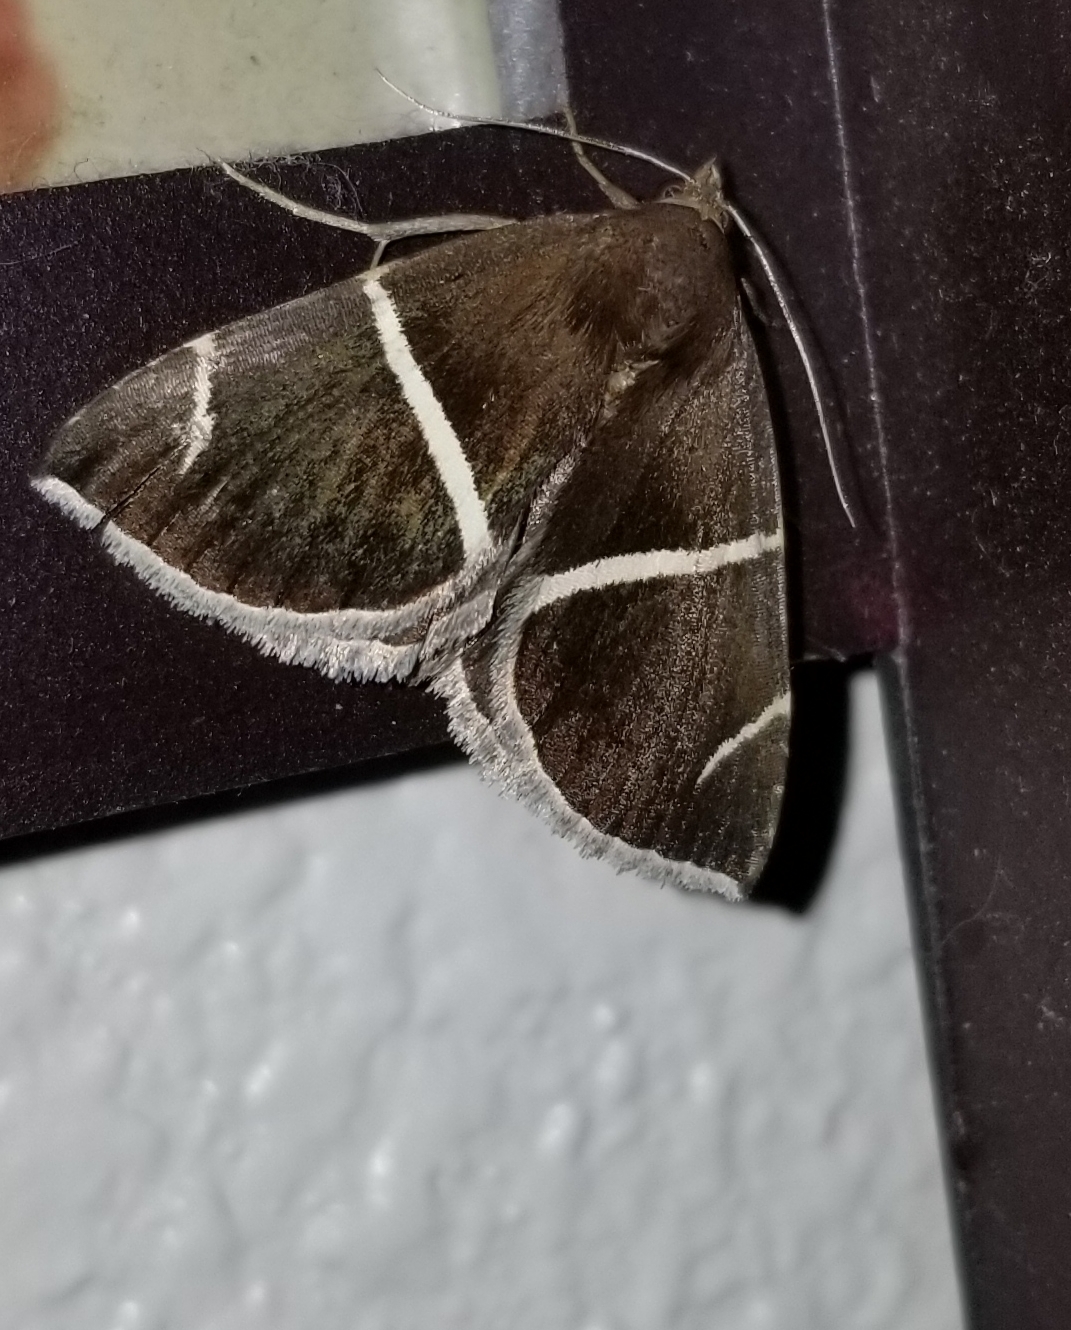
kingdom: Animalia
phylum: Arthropoda
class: Insecta
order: Lepidoptera
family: Erebidae
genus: Argyrostrotis
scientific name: Argyrostrotis anilis
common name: Short-lined chocolate
